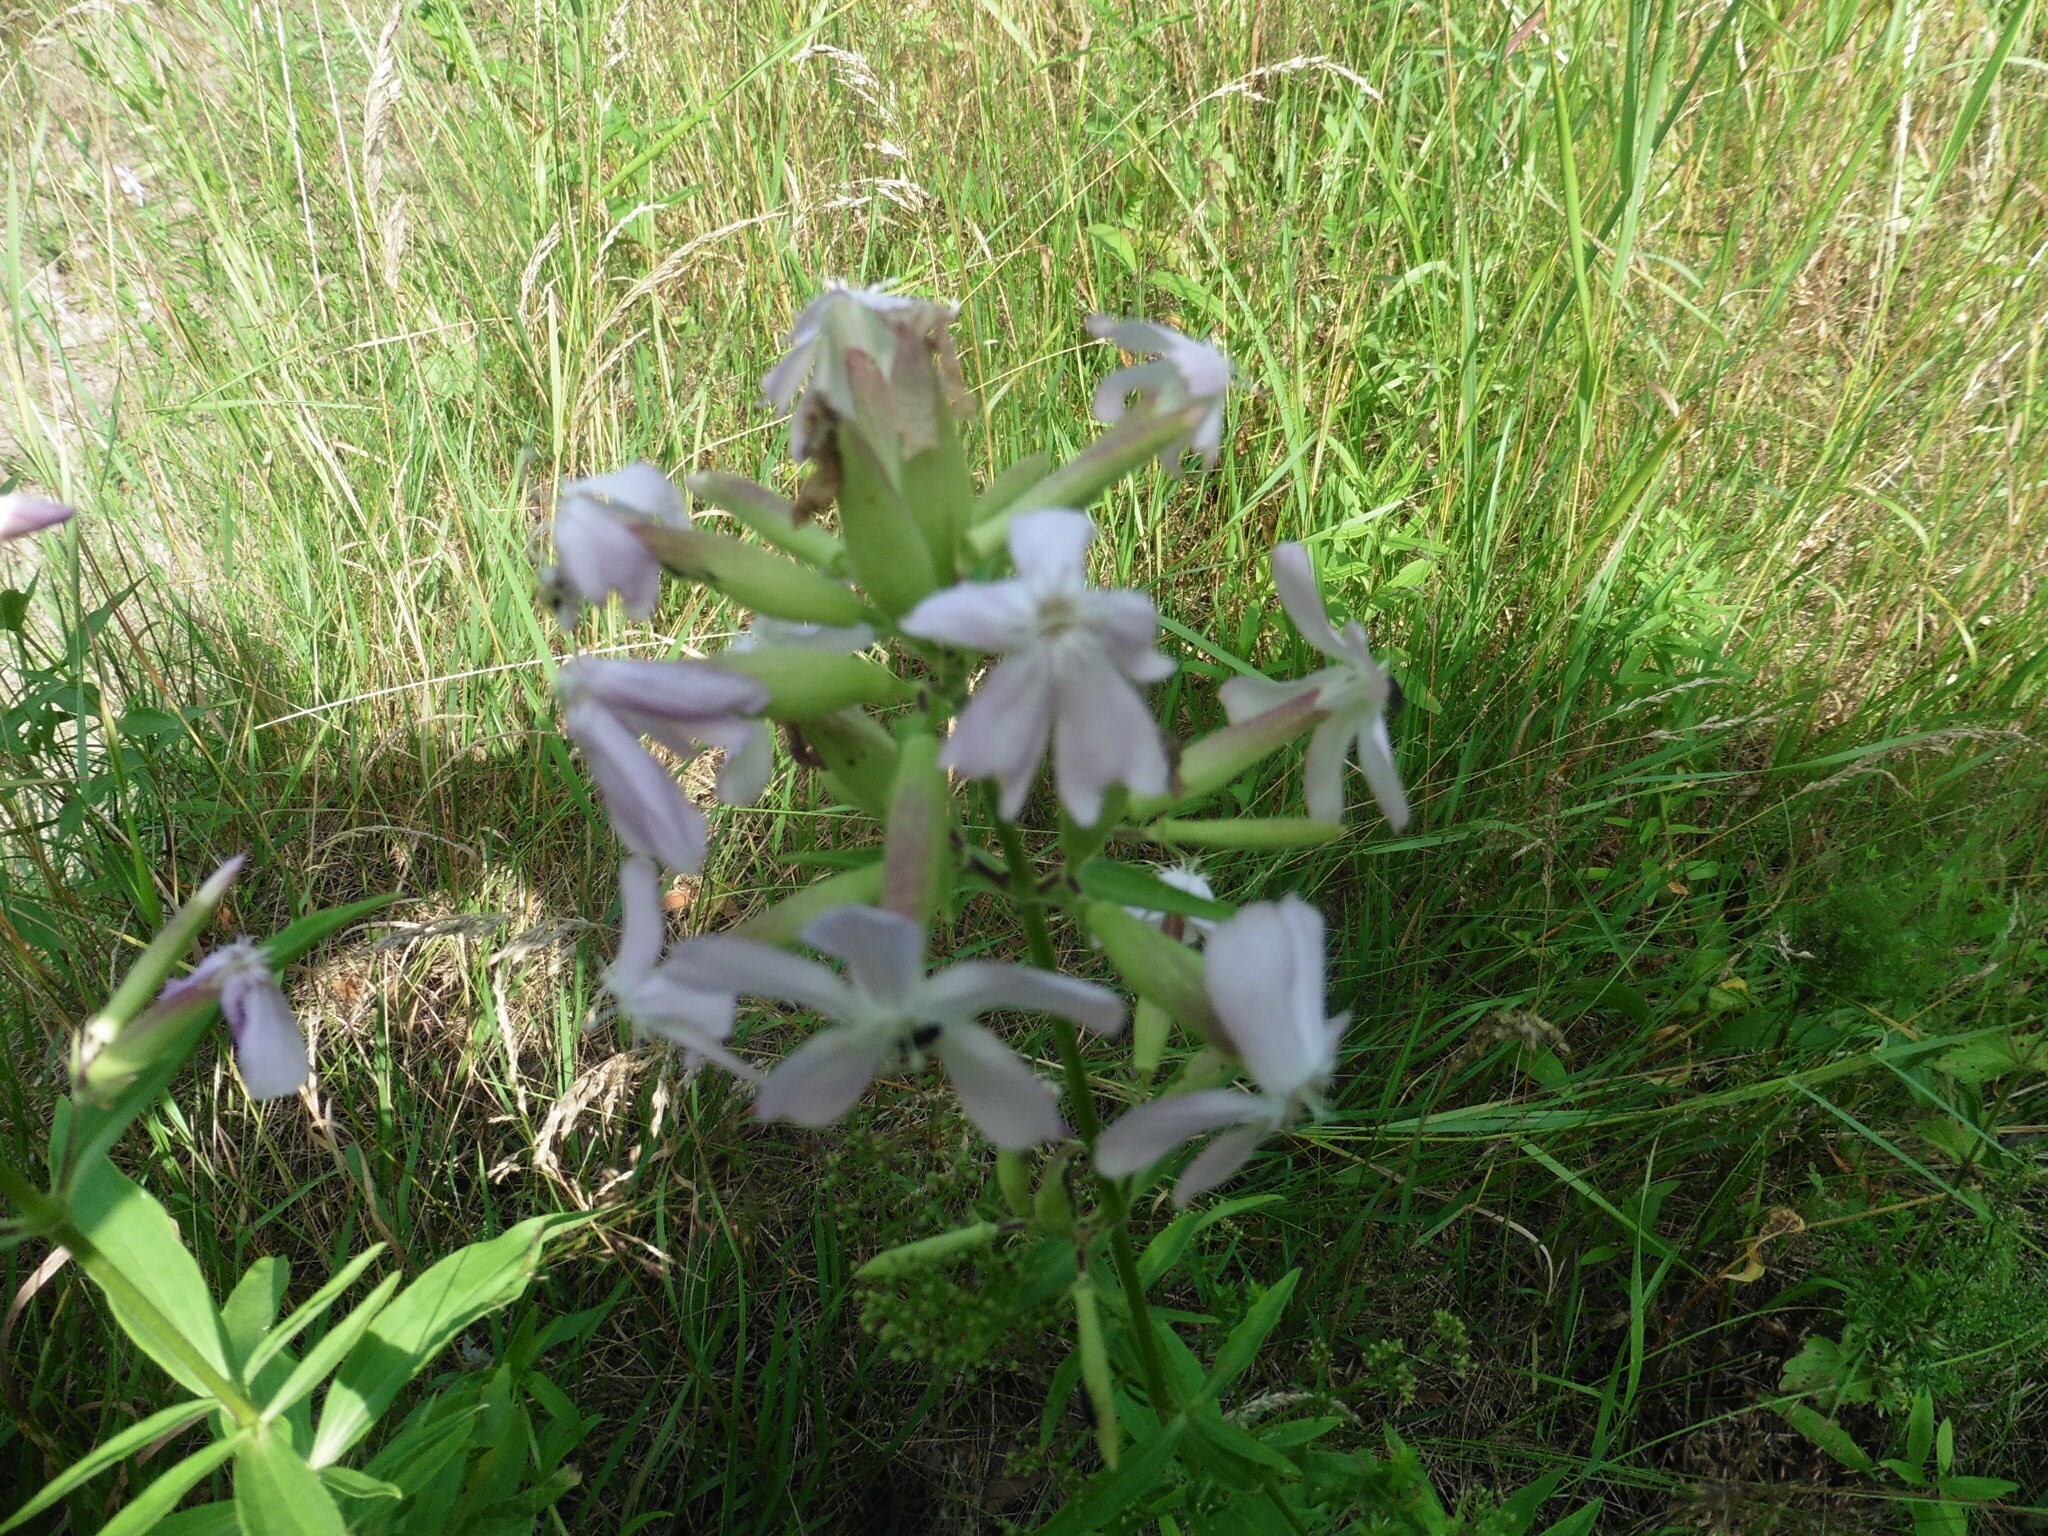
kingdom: Plantae
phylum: Tracheophyta
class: Magnoliopsida
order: Caryophyllales
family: Caryophyllaceae
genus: Saponaria
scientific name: Saponaria officinalis
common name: Soapwort
